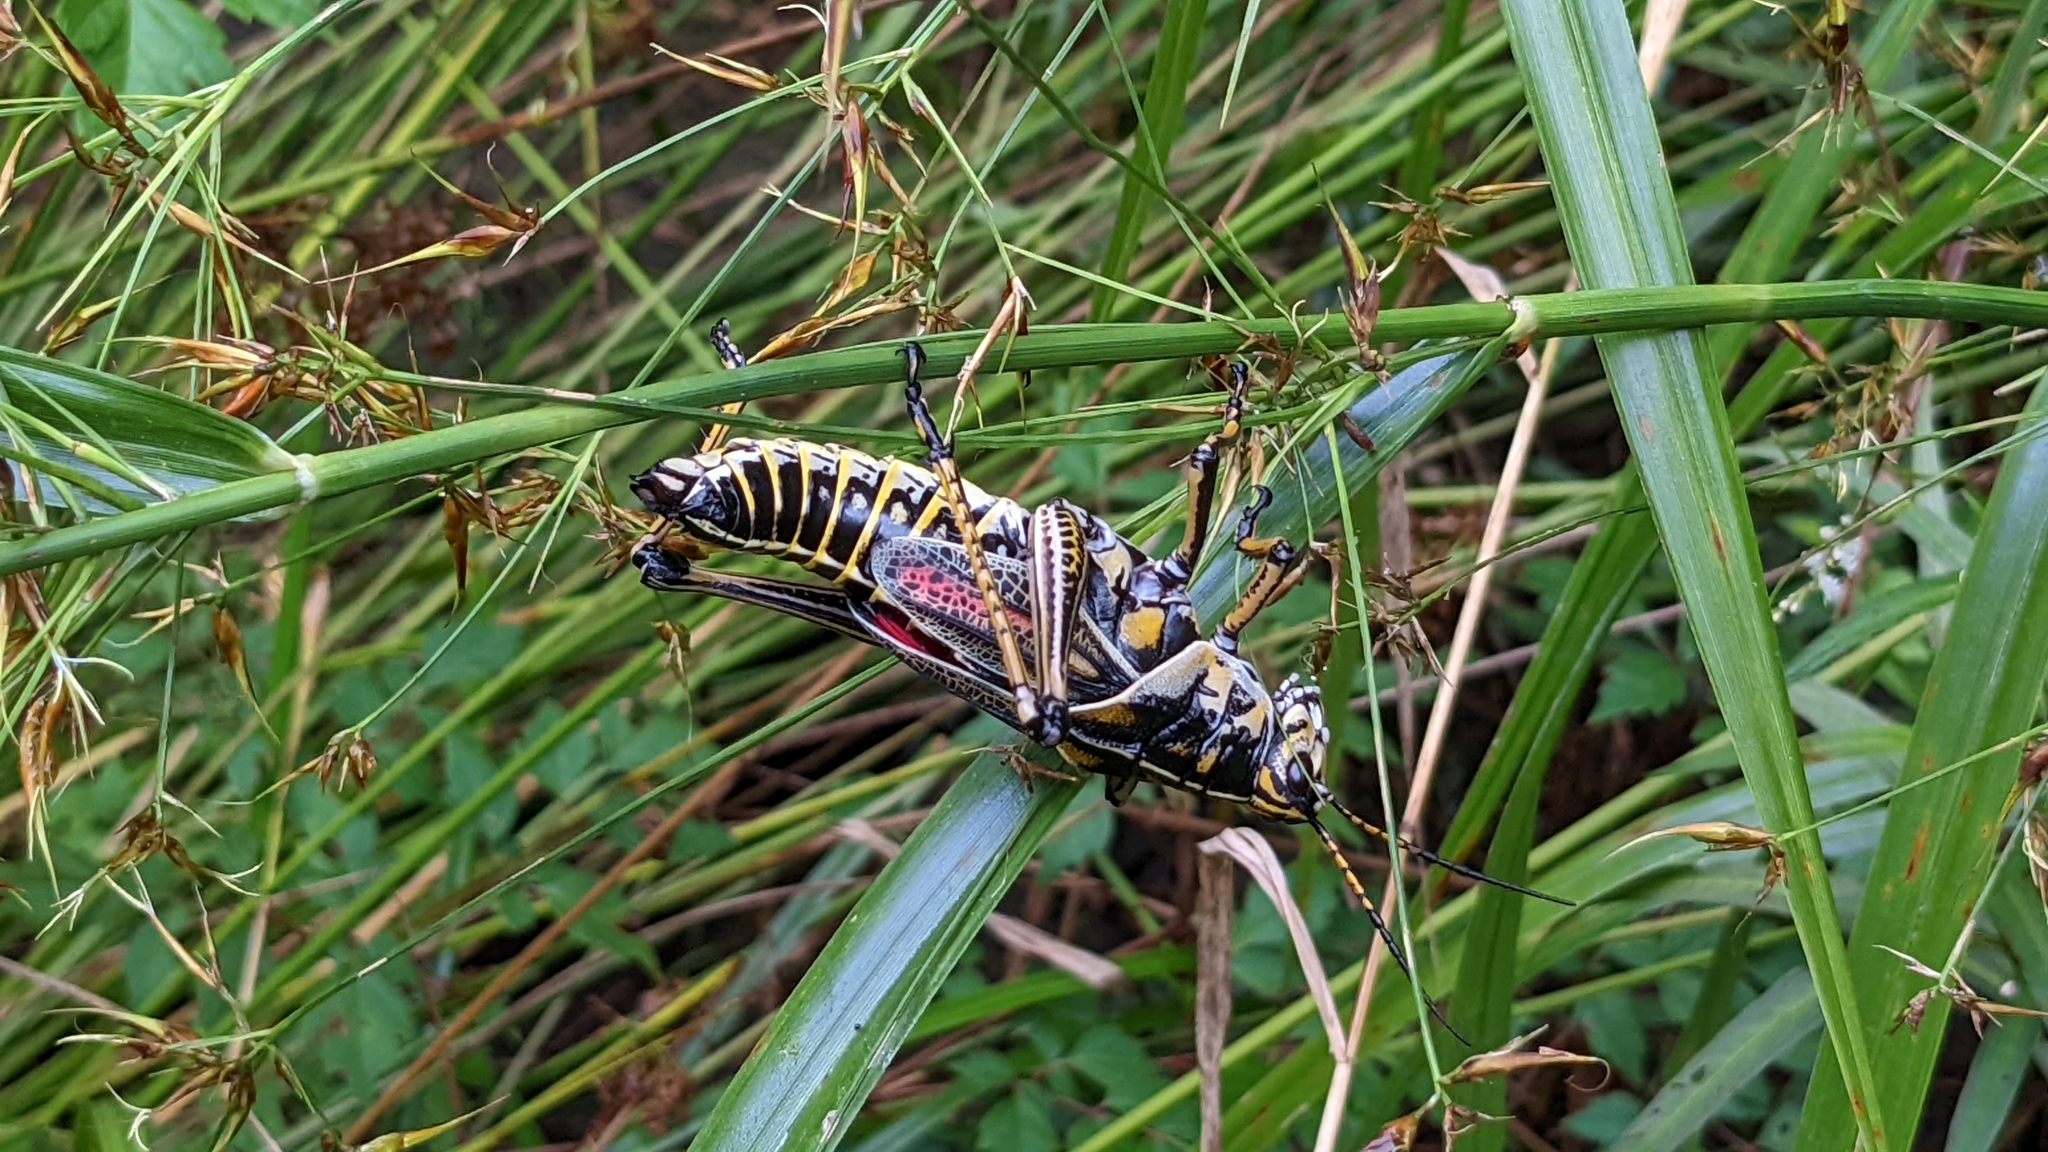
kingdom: Animalia
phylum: Arthropoda
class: Insecta
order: Orthoptera
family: Romaleidae
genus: Romalea
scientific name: Romalea microptera
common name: Eastern lubber grasshopper
